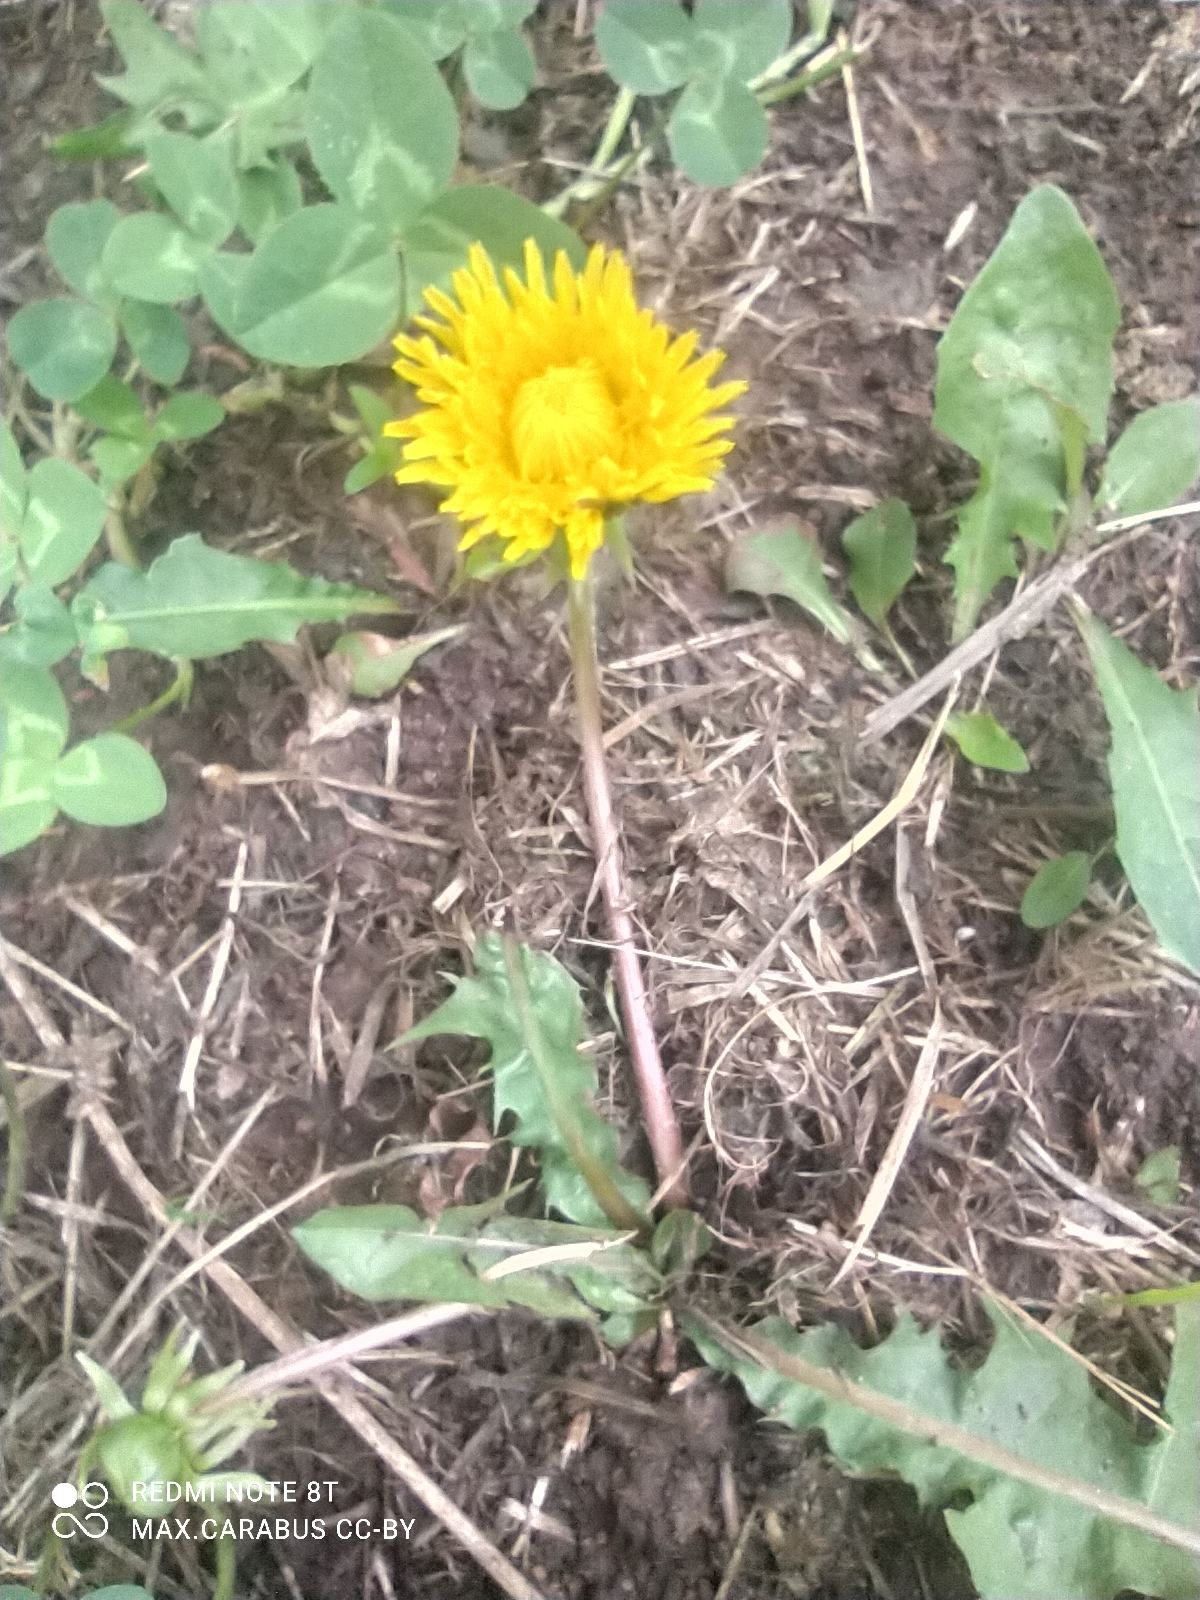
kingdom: Plantae
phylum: Tracheophyta
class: Magnoliopsida
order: Asterales
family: Asteraceae
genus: Taraxacum
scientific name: Taraxacum officinale
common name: Common dandelion
